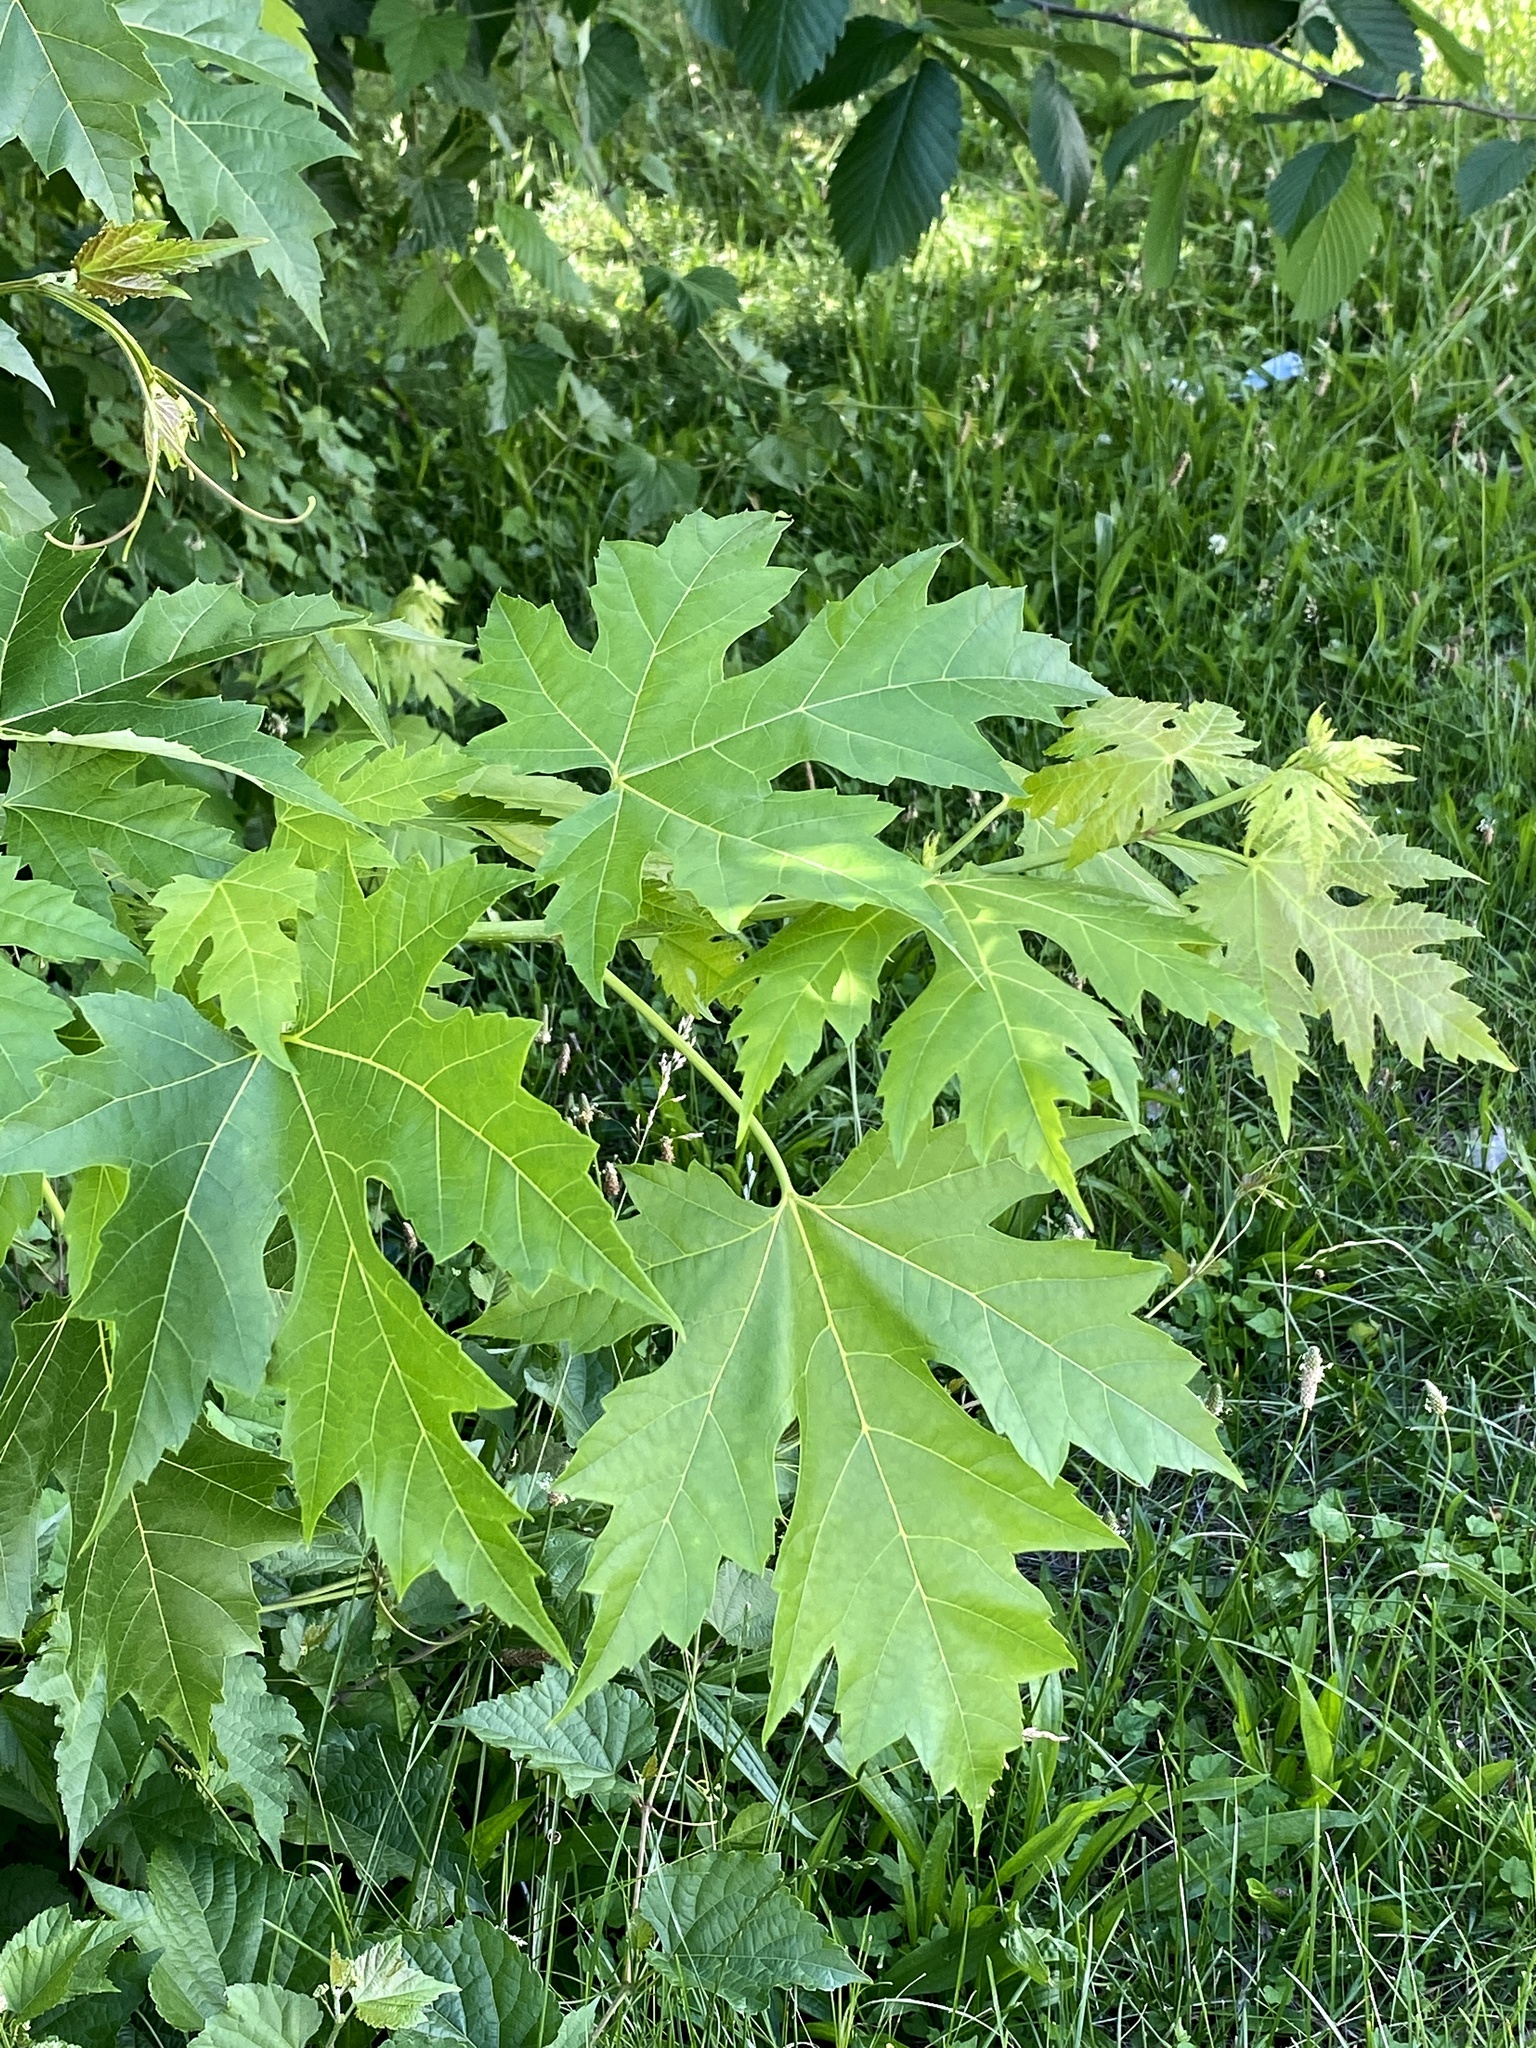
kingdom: Plantae
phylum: Tracheophyta
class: Magnoliopsida
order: Sapindales
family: Sapindaceae
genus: Acer
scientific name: Acer saccharinum
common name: Silver maple
